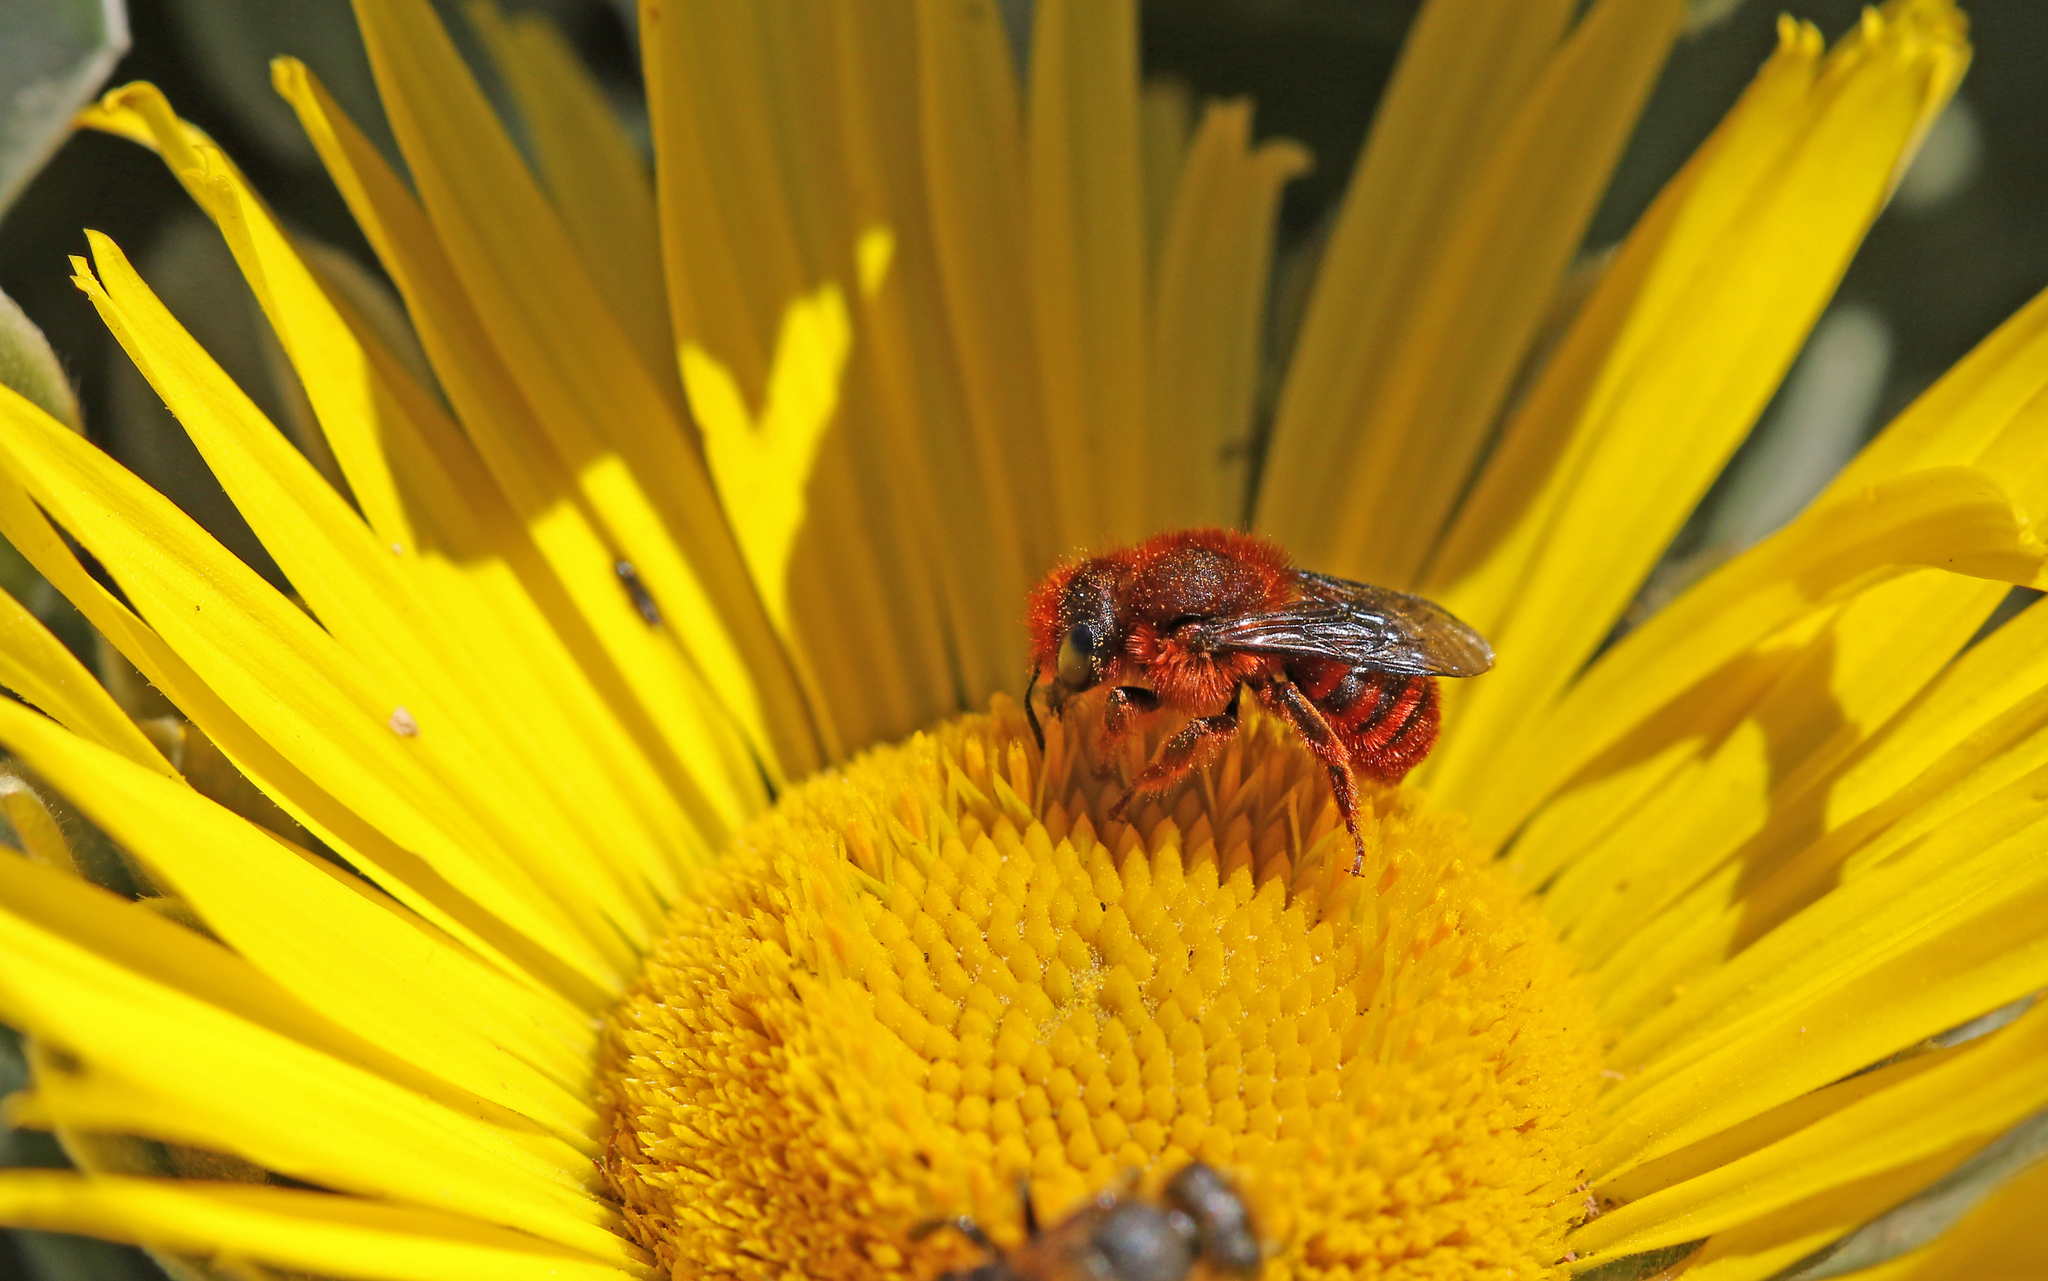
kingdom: Animalia
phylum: Arthropoda
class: Insecta
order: Hymenoptera
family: Megachilidae
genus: Osmia
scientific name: Osmia cinnabarina
